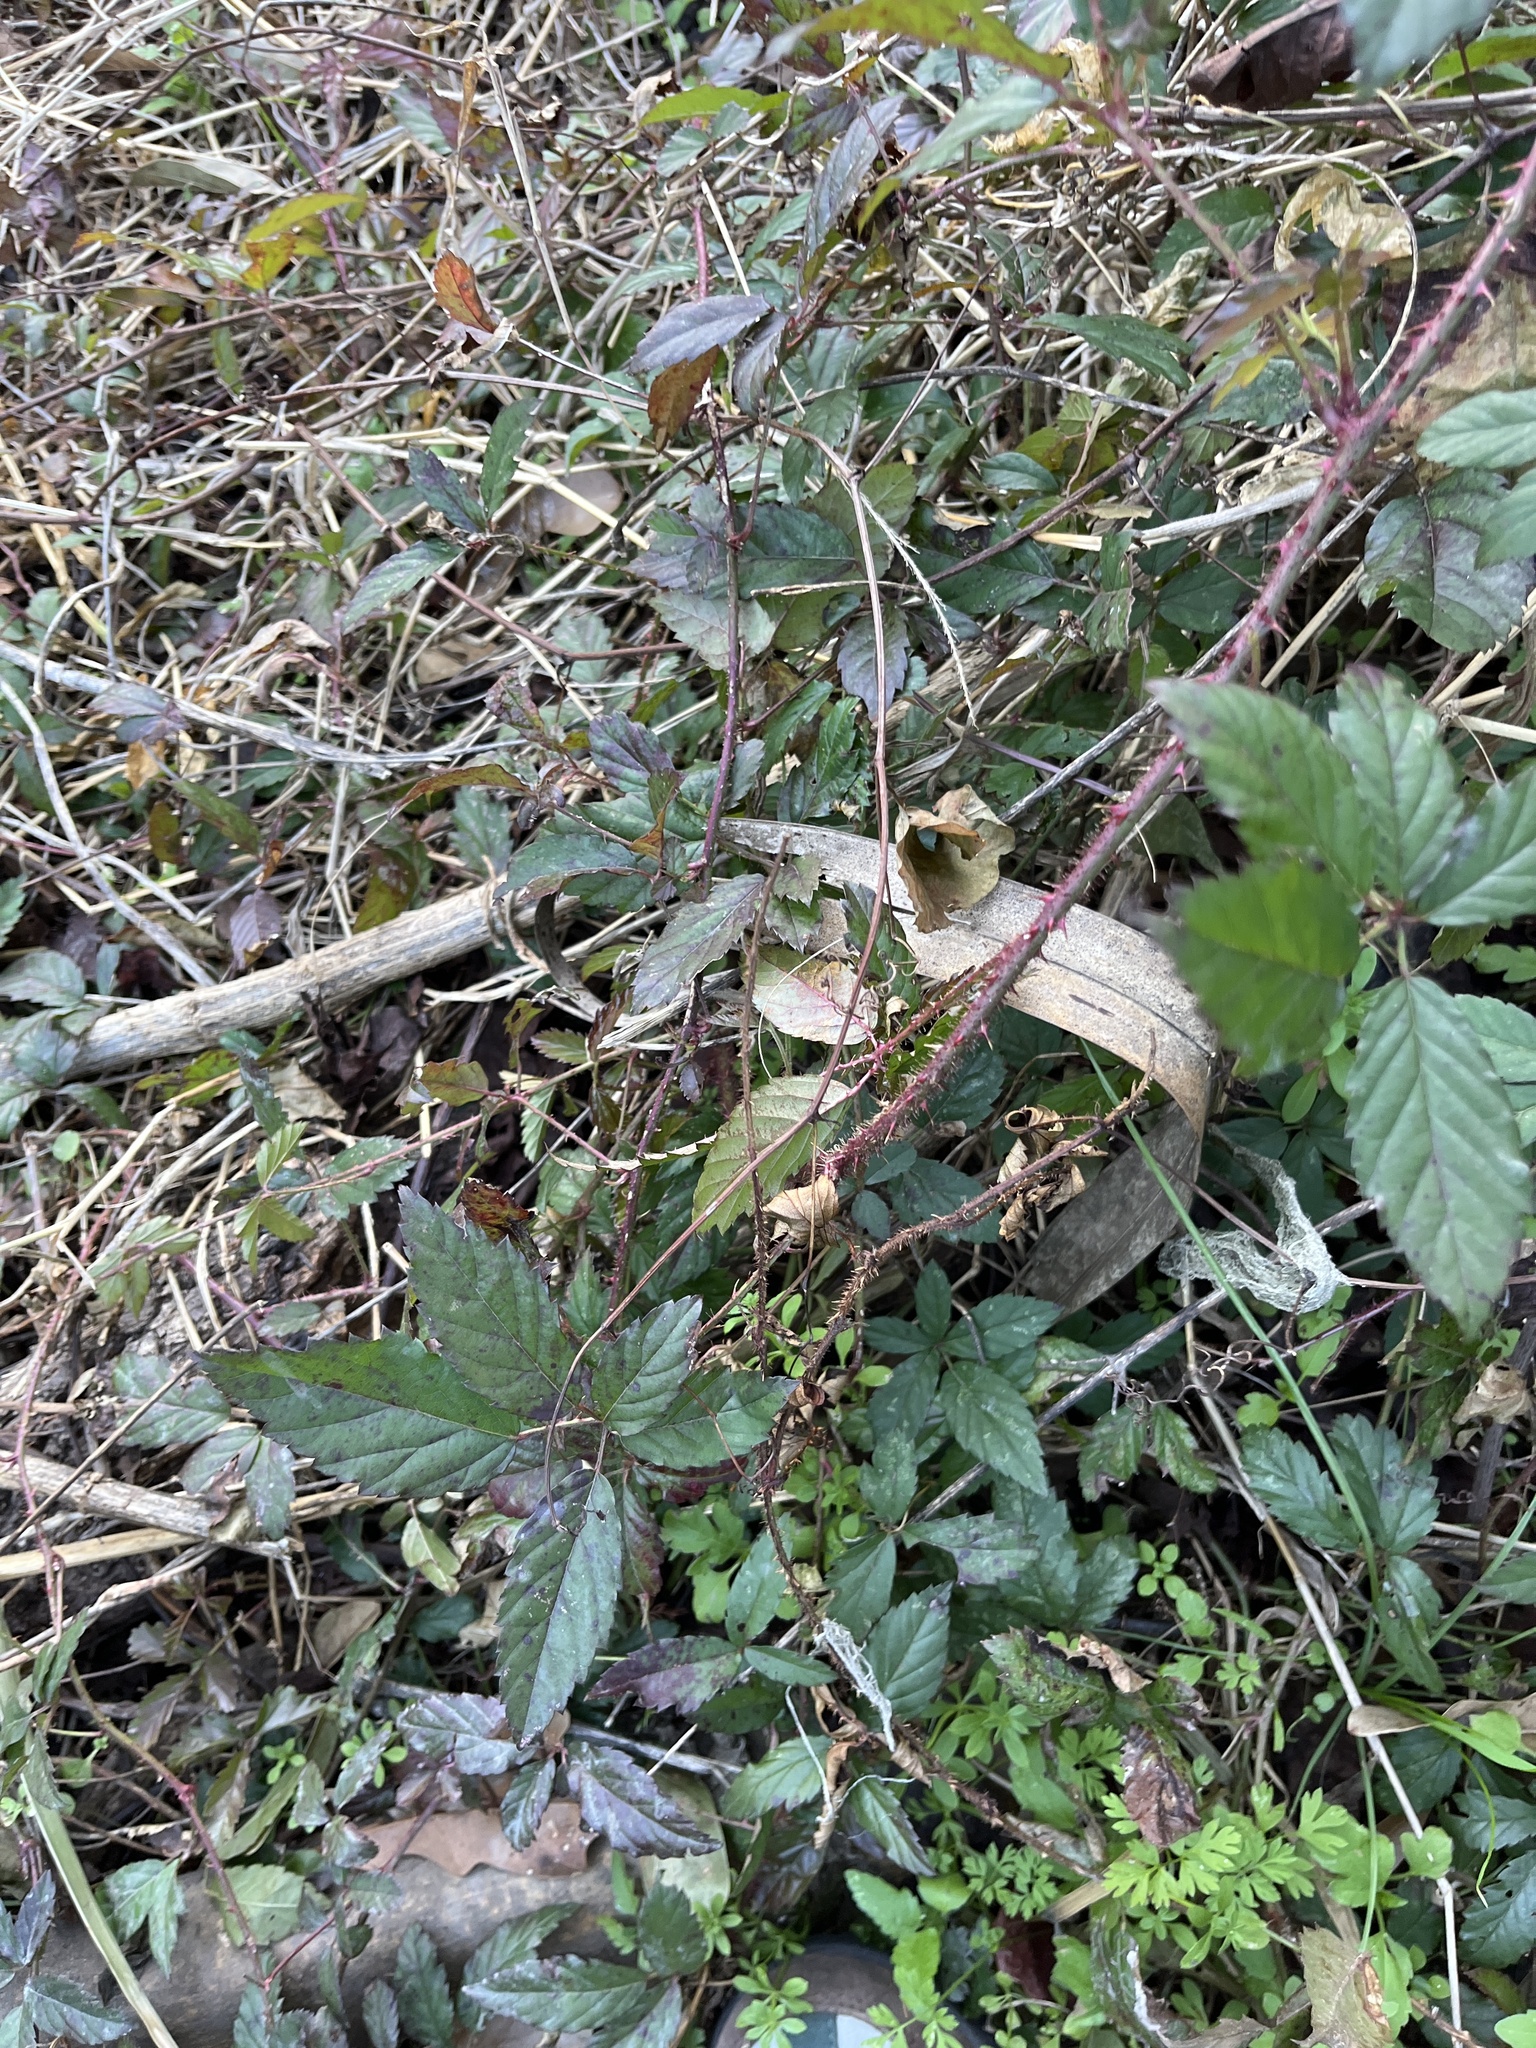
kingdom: Plantae
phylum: Tracheophyta
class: Magnoliopsida
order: Rosales
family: Rosaceae
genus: Rubus
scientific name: Rubus trivialis
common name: Southern dewberry
